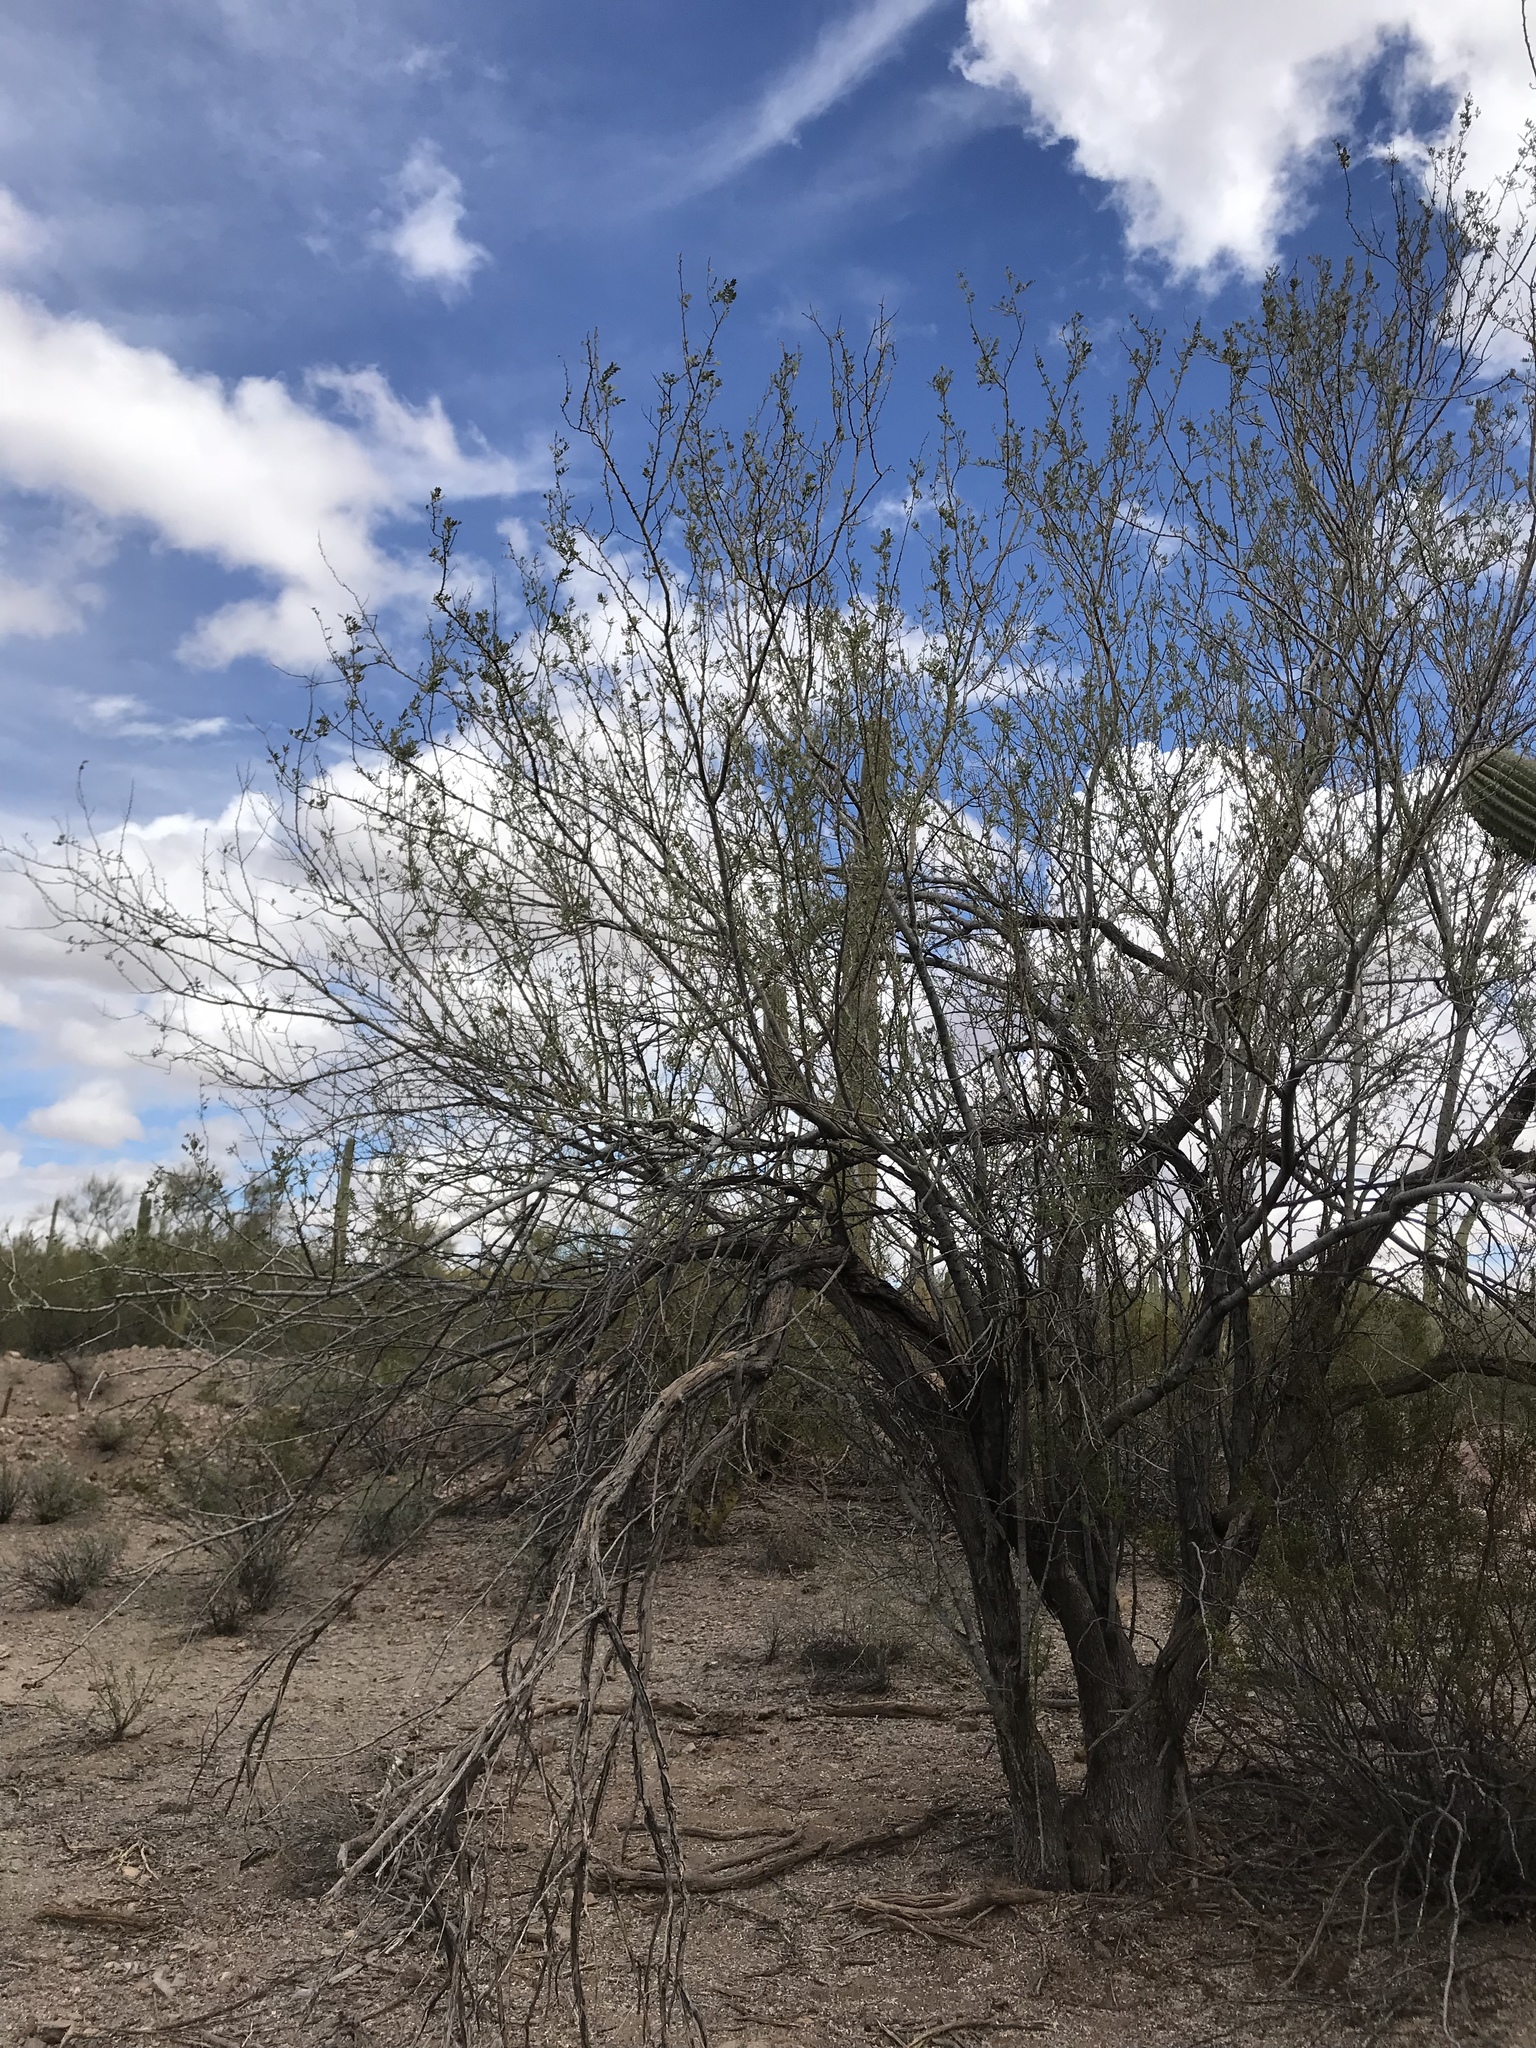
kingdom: Plantae
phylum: Tracheophyta
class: Magnoliopsida
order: Fabales
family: Fabaceae
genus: Olneya
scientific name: Olneya tesota
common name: Desert ironwood
